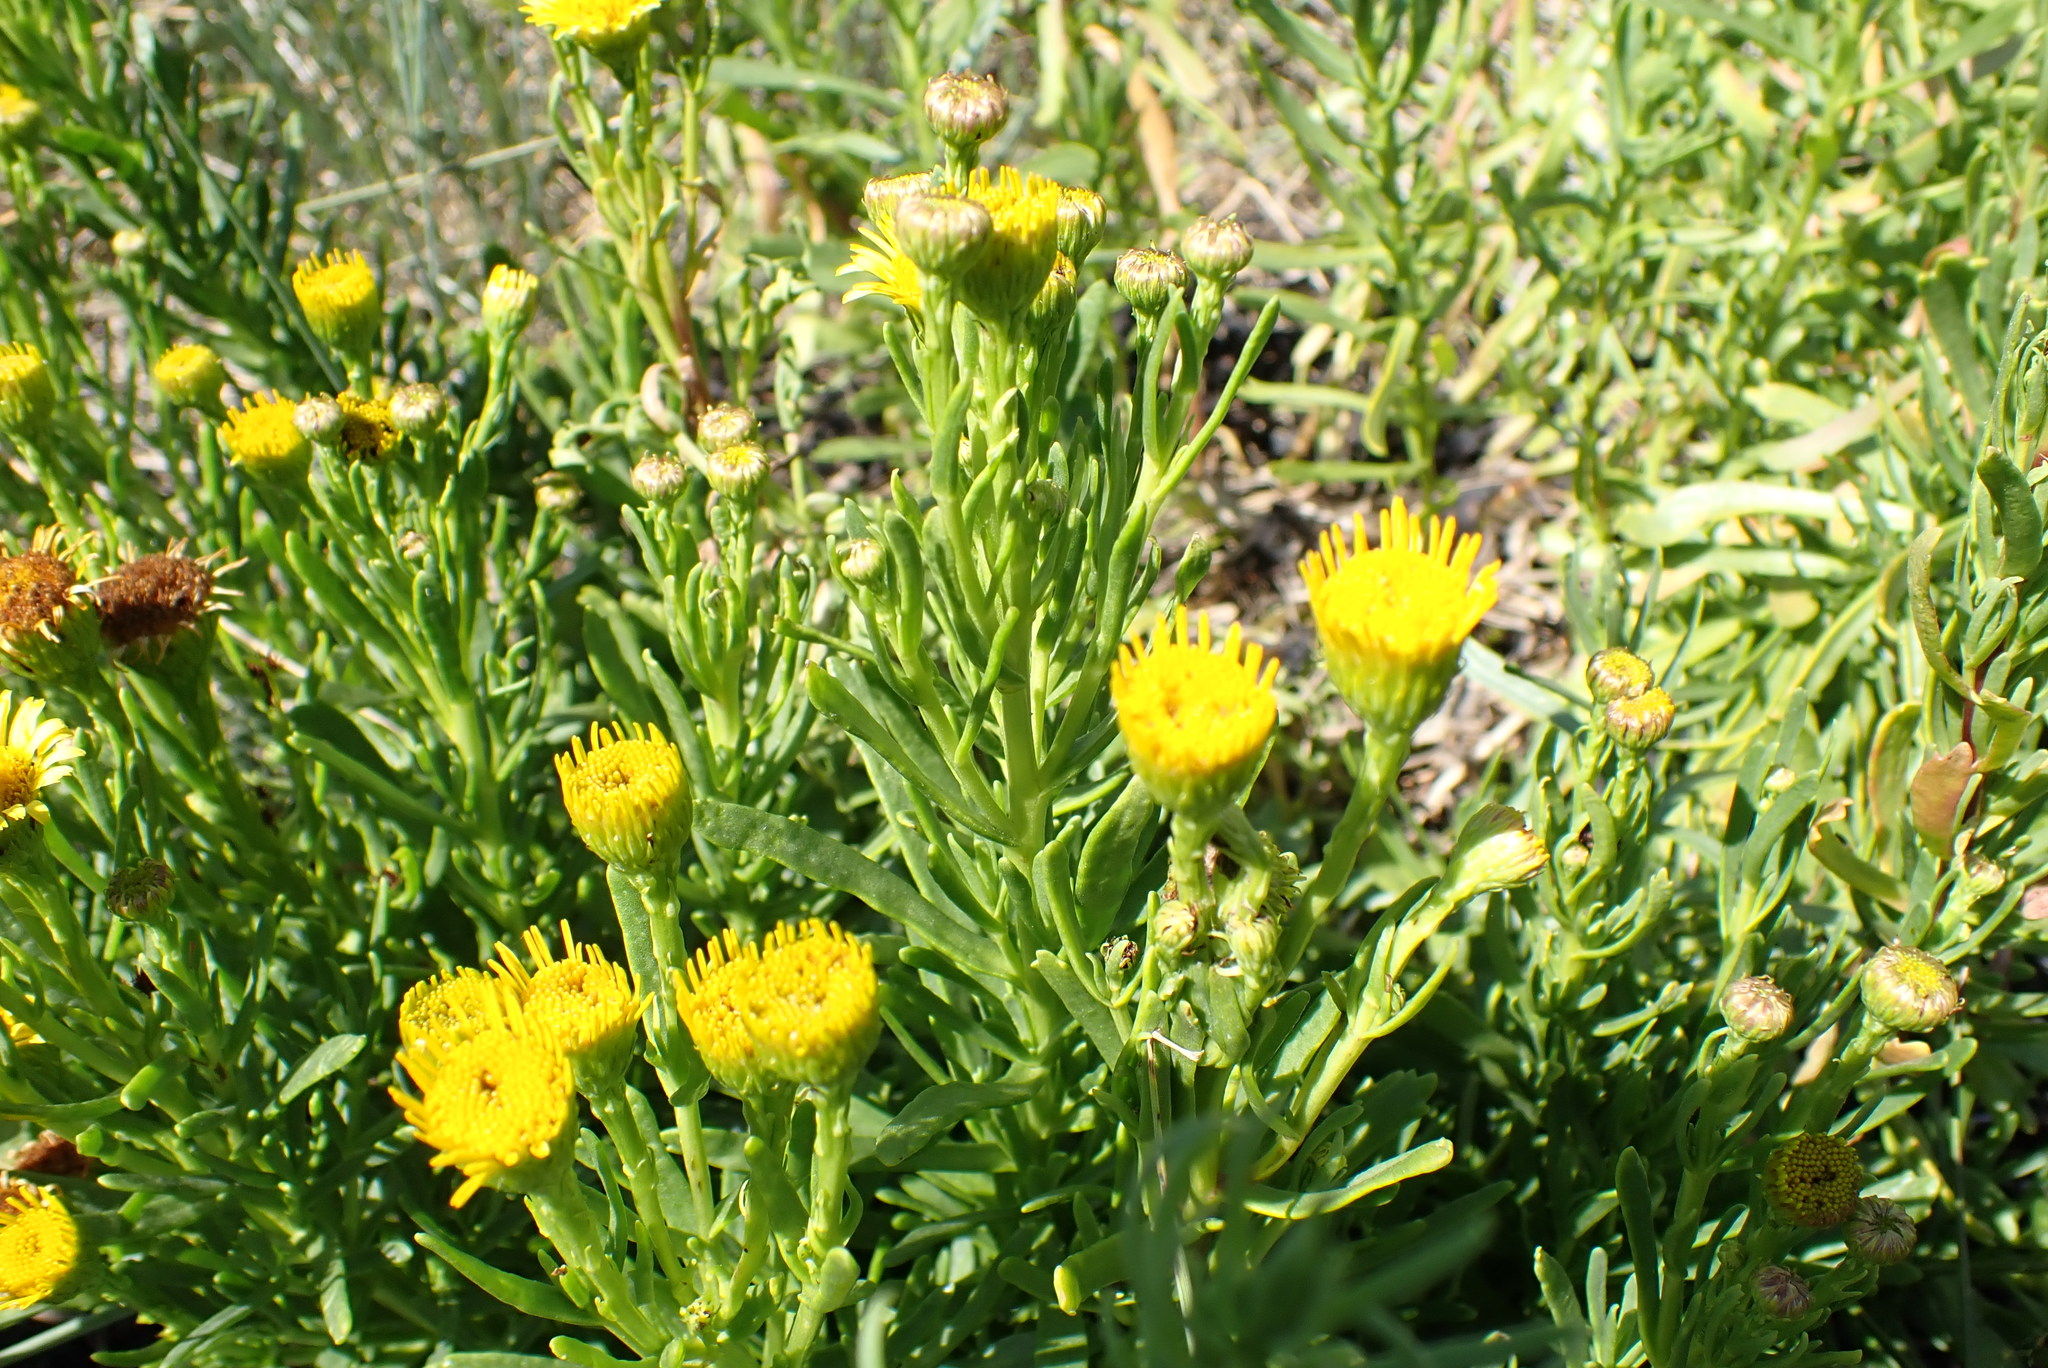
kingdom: Plantae
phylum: Tracheophyta
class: Magnoliopsida
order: Asterales
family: Asteraceae
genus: Limbarda
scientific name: Limbarda crithmoides
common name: Golden samphire
